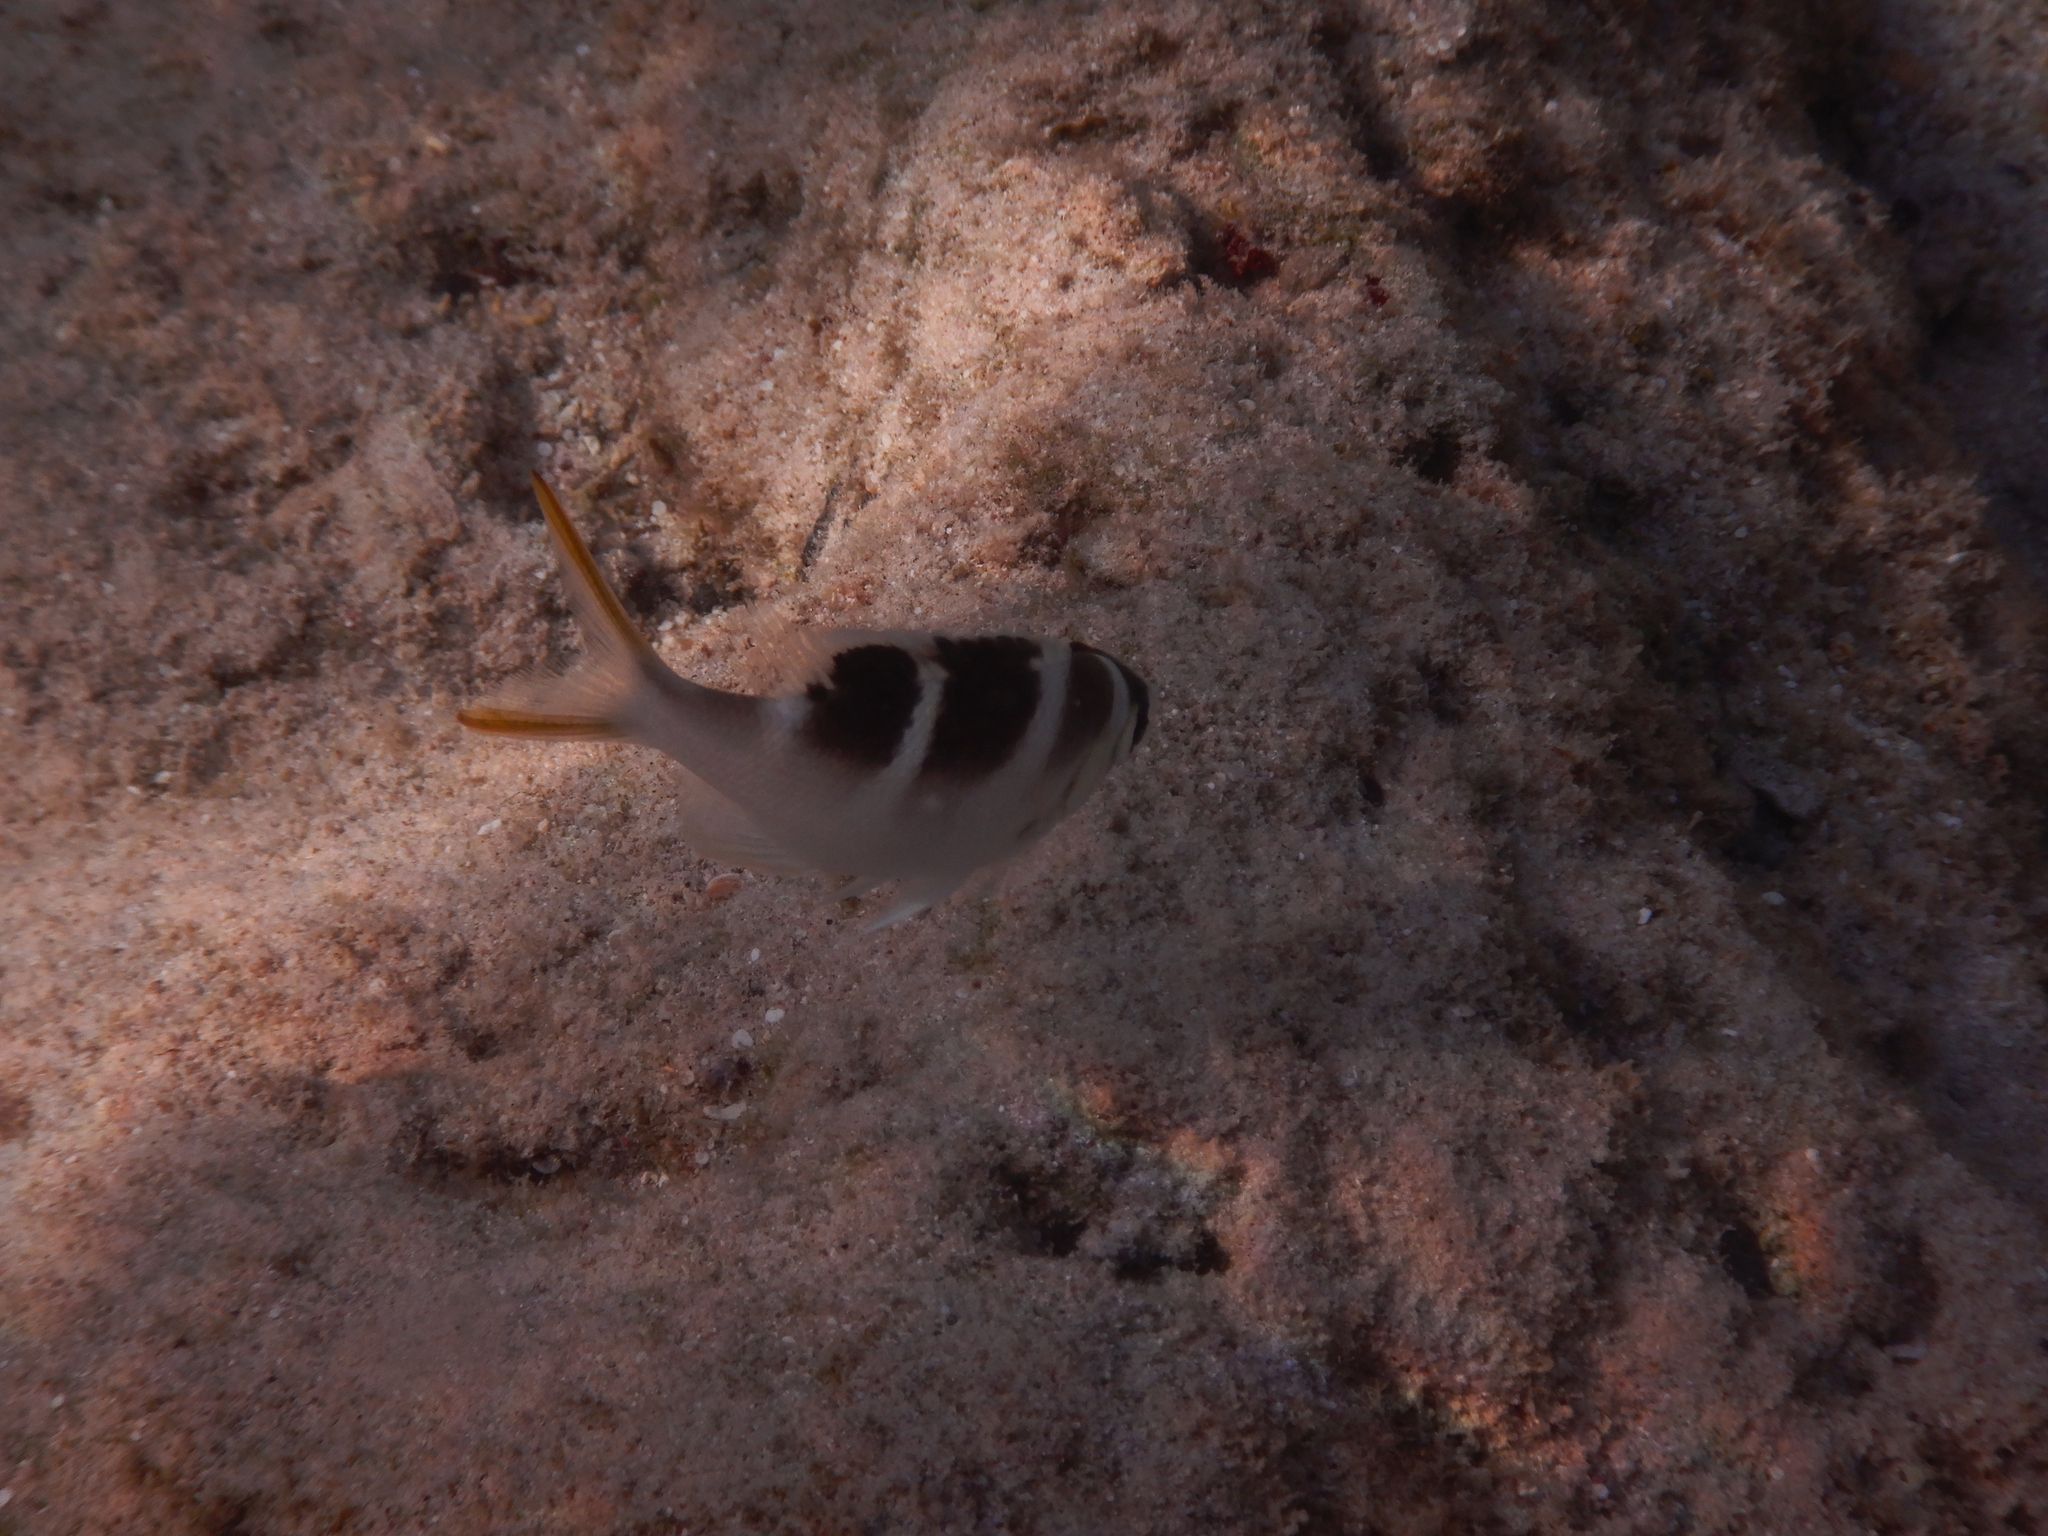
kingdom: Animalia
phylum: Chordata
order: Perciformes
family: Lethrinidae
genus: Monotaxis
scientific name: Monotaxis grandoculis
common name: Bigeye emperor
